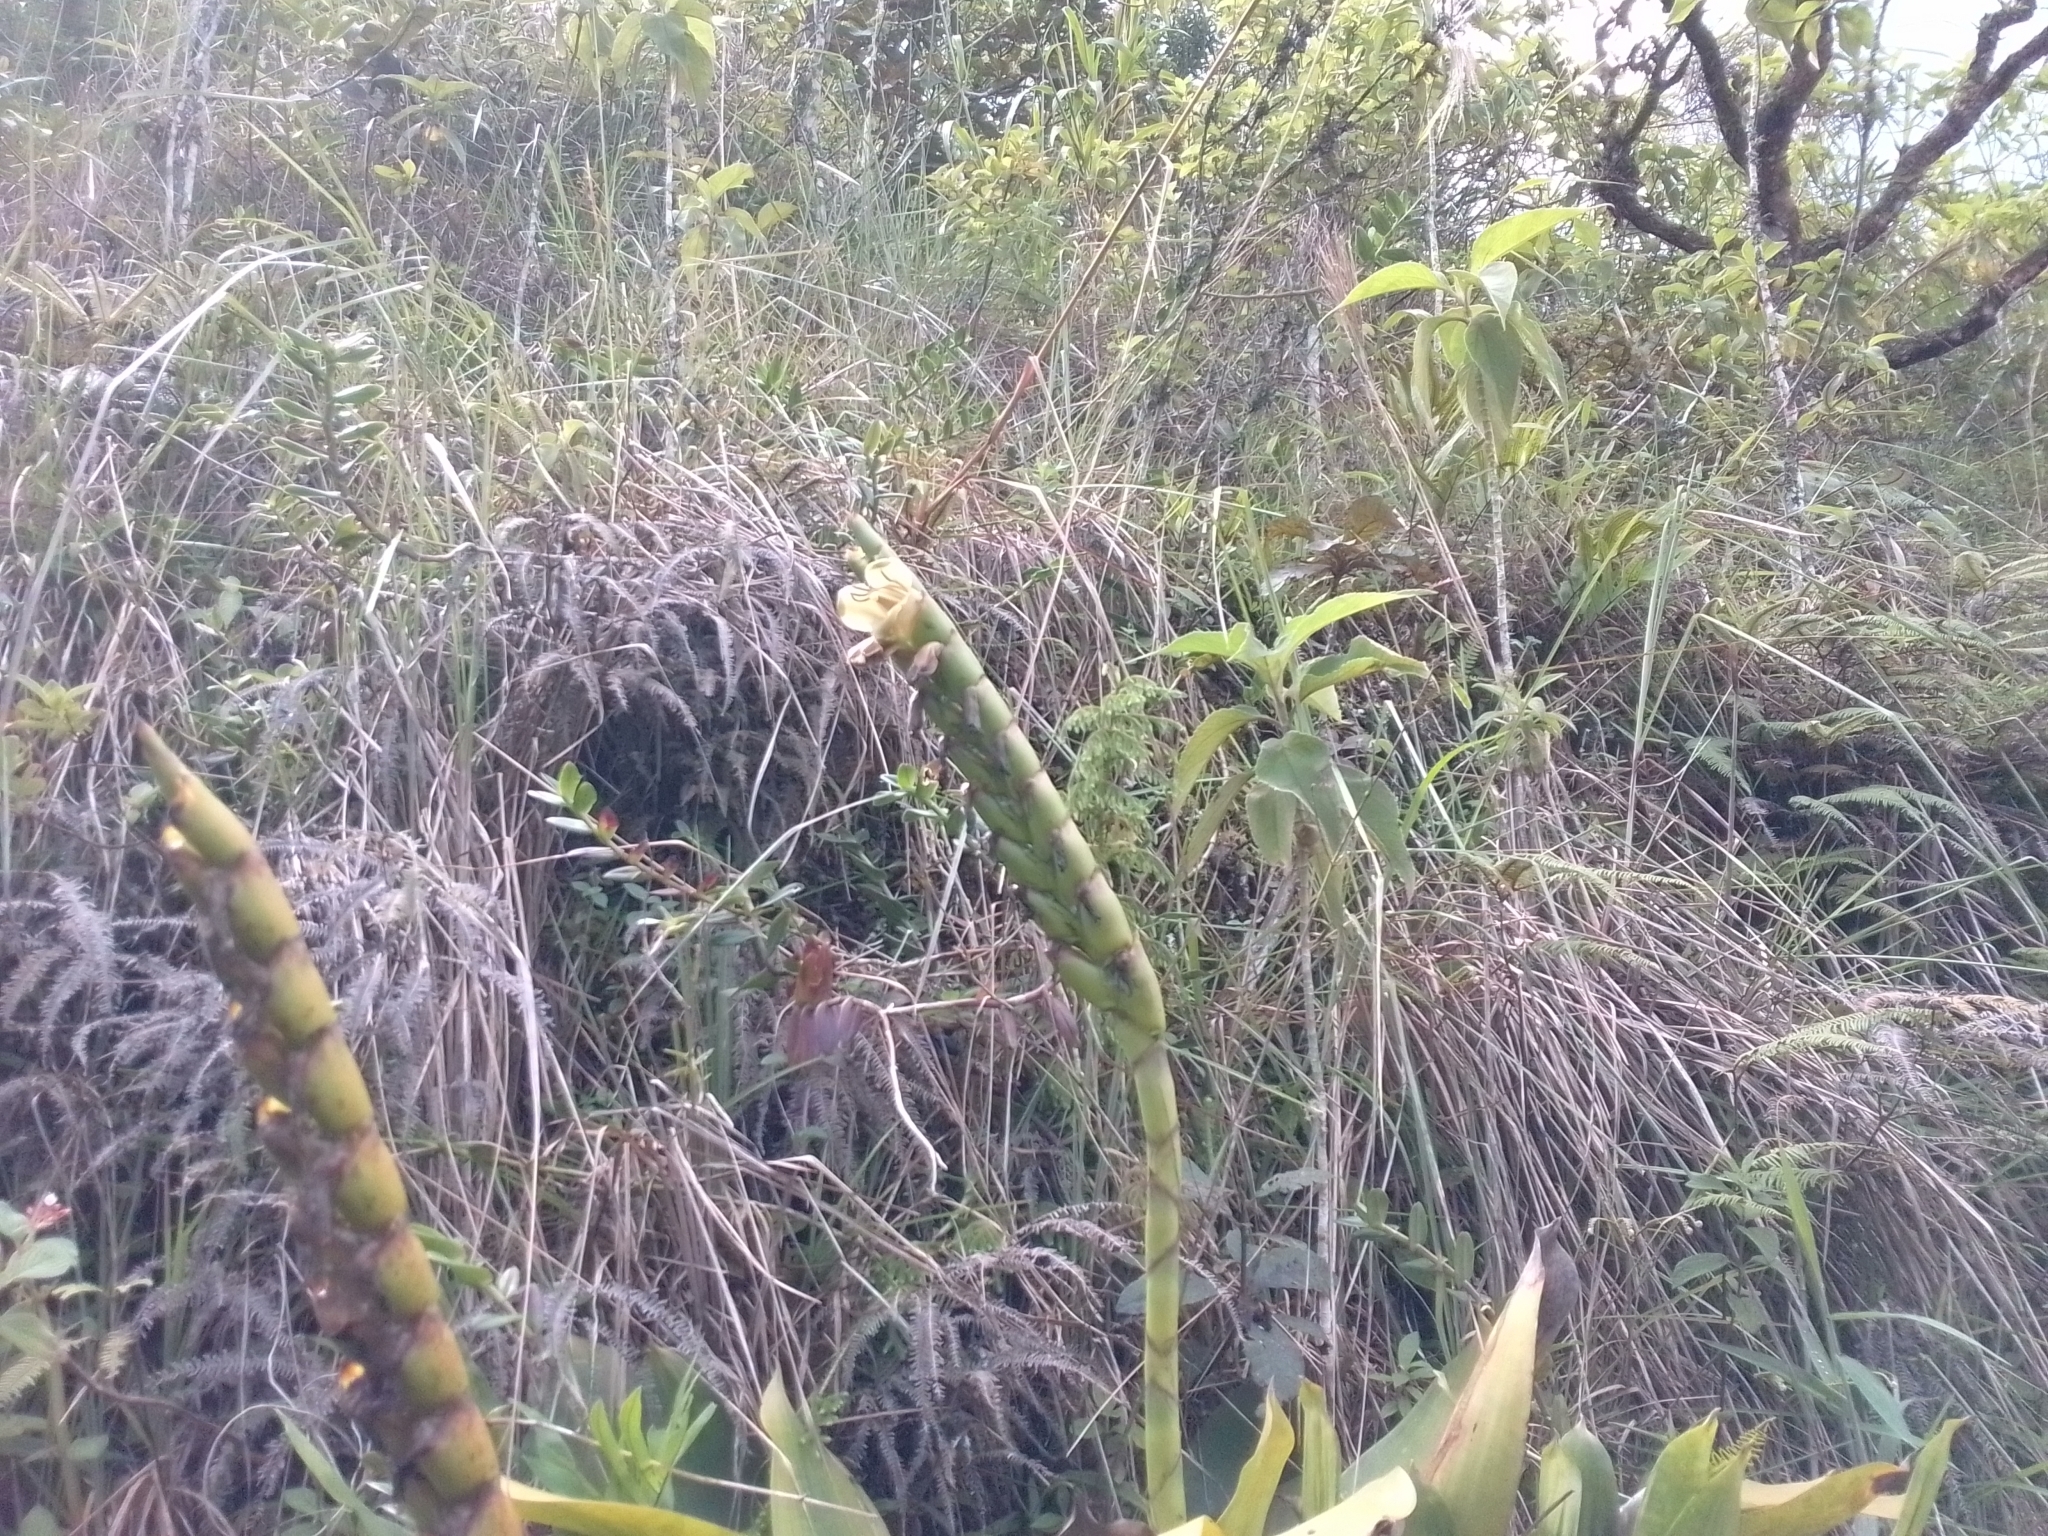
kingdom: Plantae
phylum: Tracheophyta
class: Liliopsida
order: Poales
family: Bromeliaceae
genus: Werauhia
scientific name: Werauhia gladioliflora
